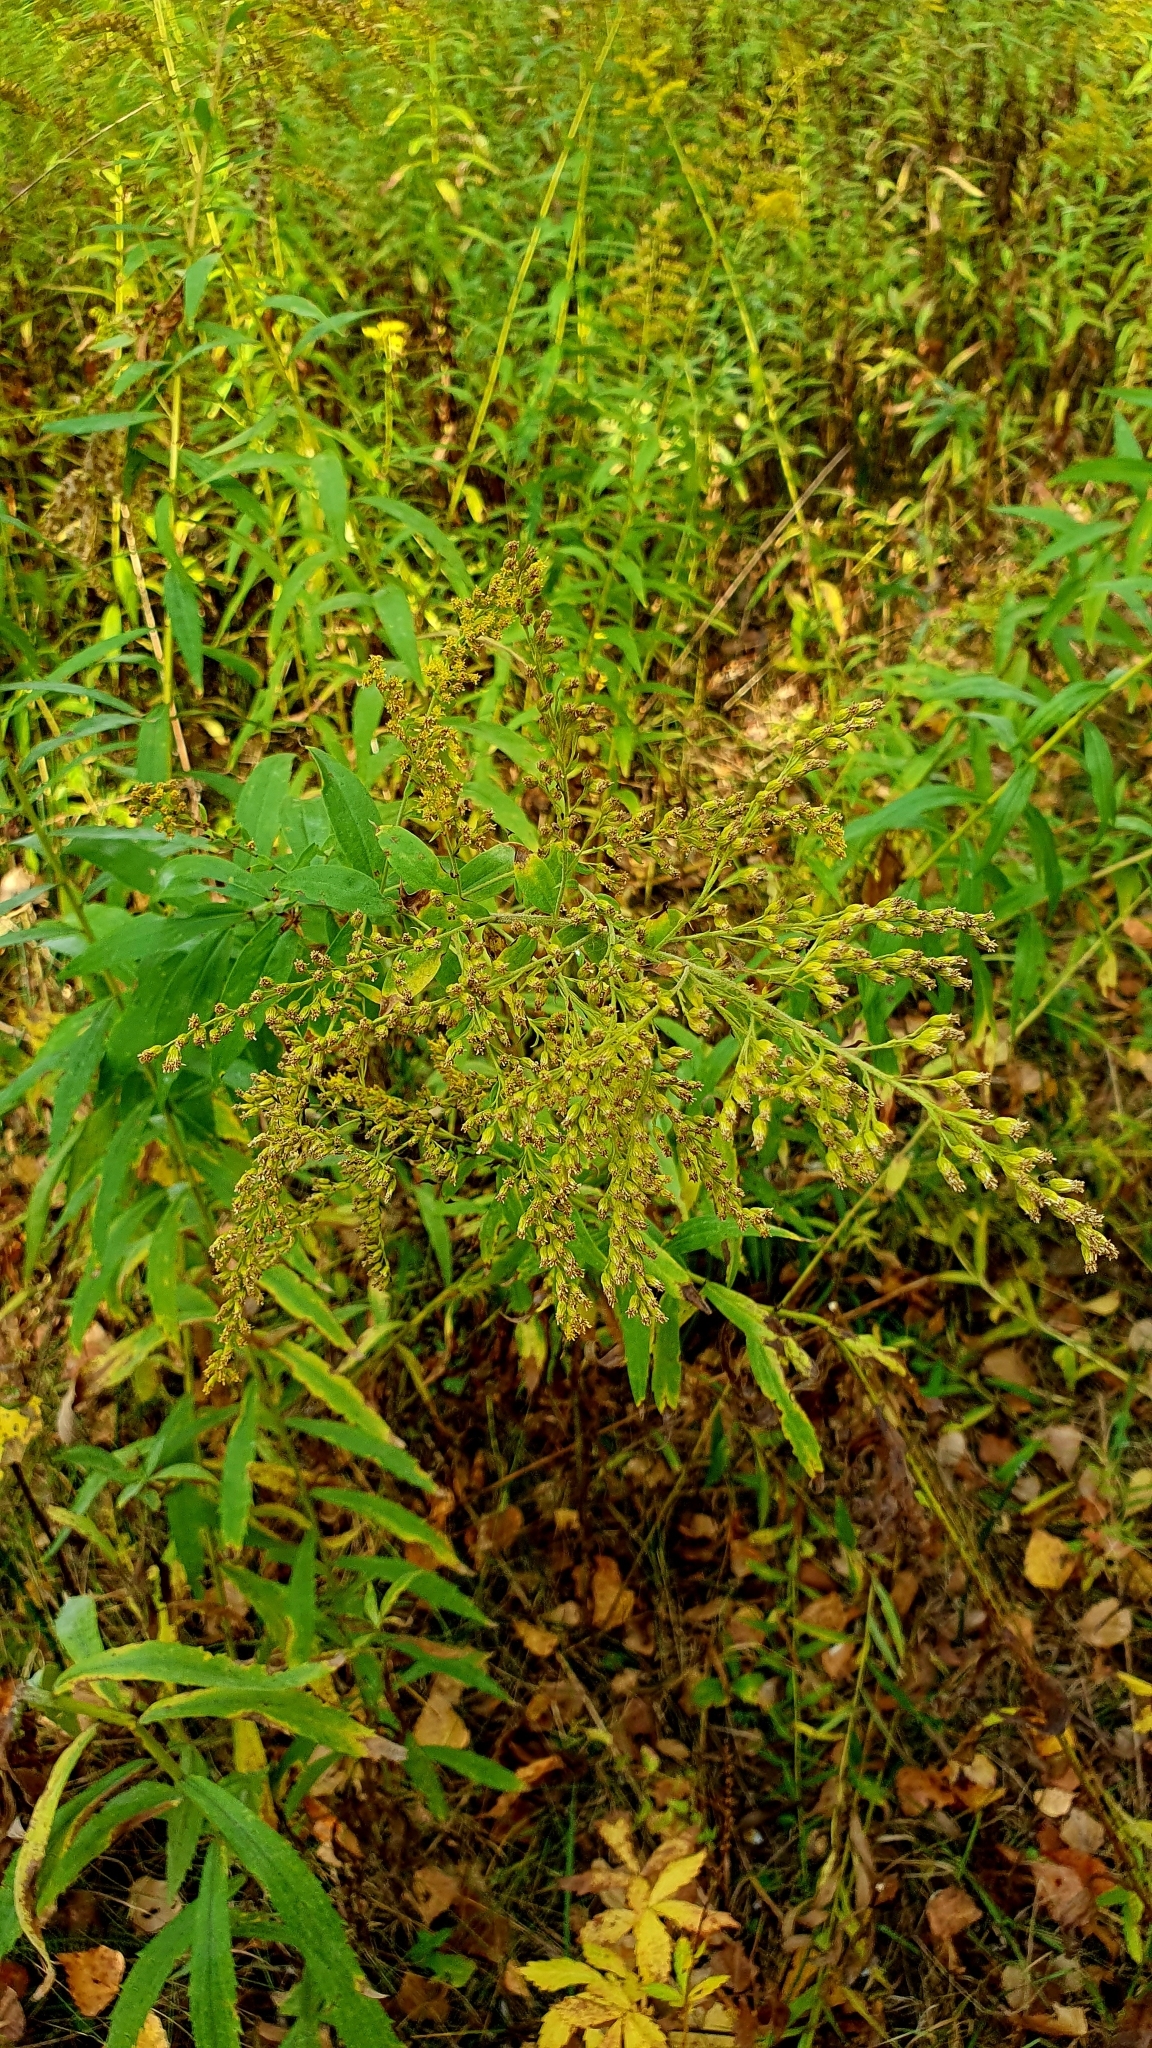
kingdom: Plantae
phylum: Tracheophyta
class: Magnoliopsida
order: Asterales
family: Asteraceae
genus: Solidago
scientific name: Solidago canadensis
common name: Canada goldenrod
